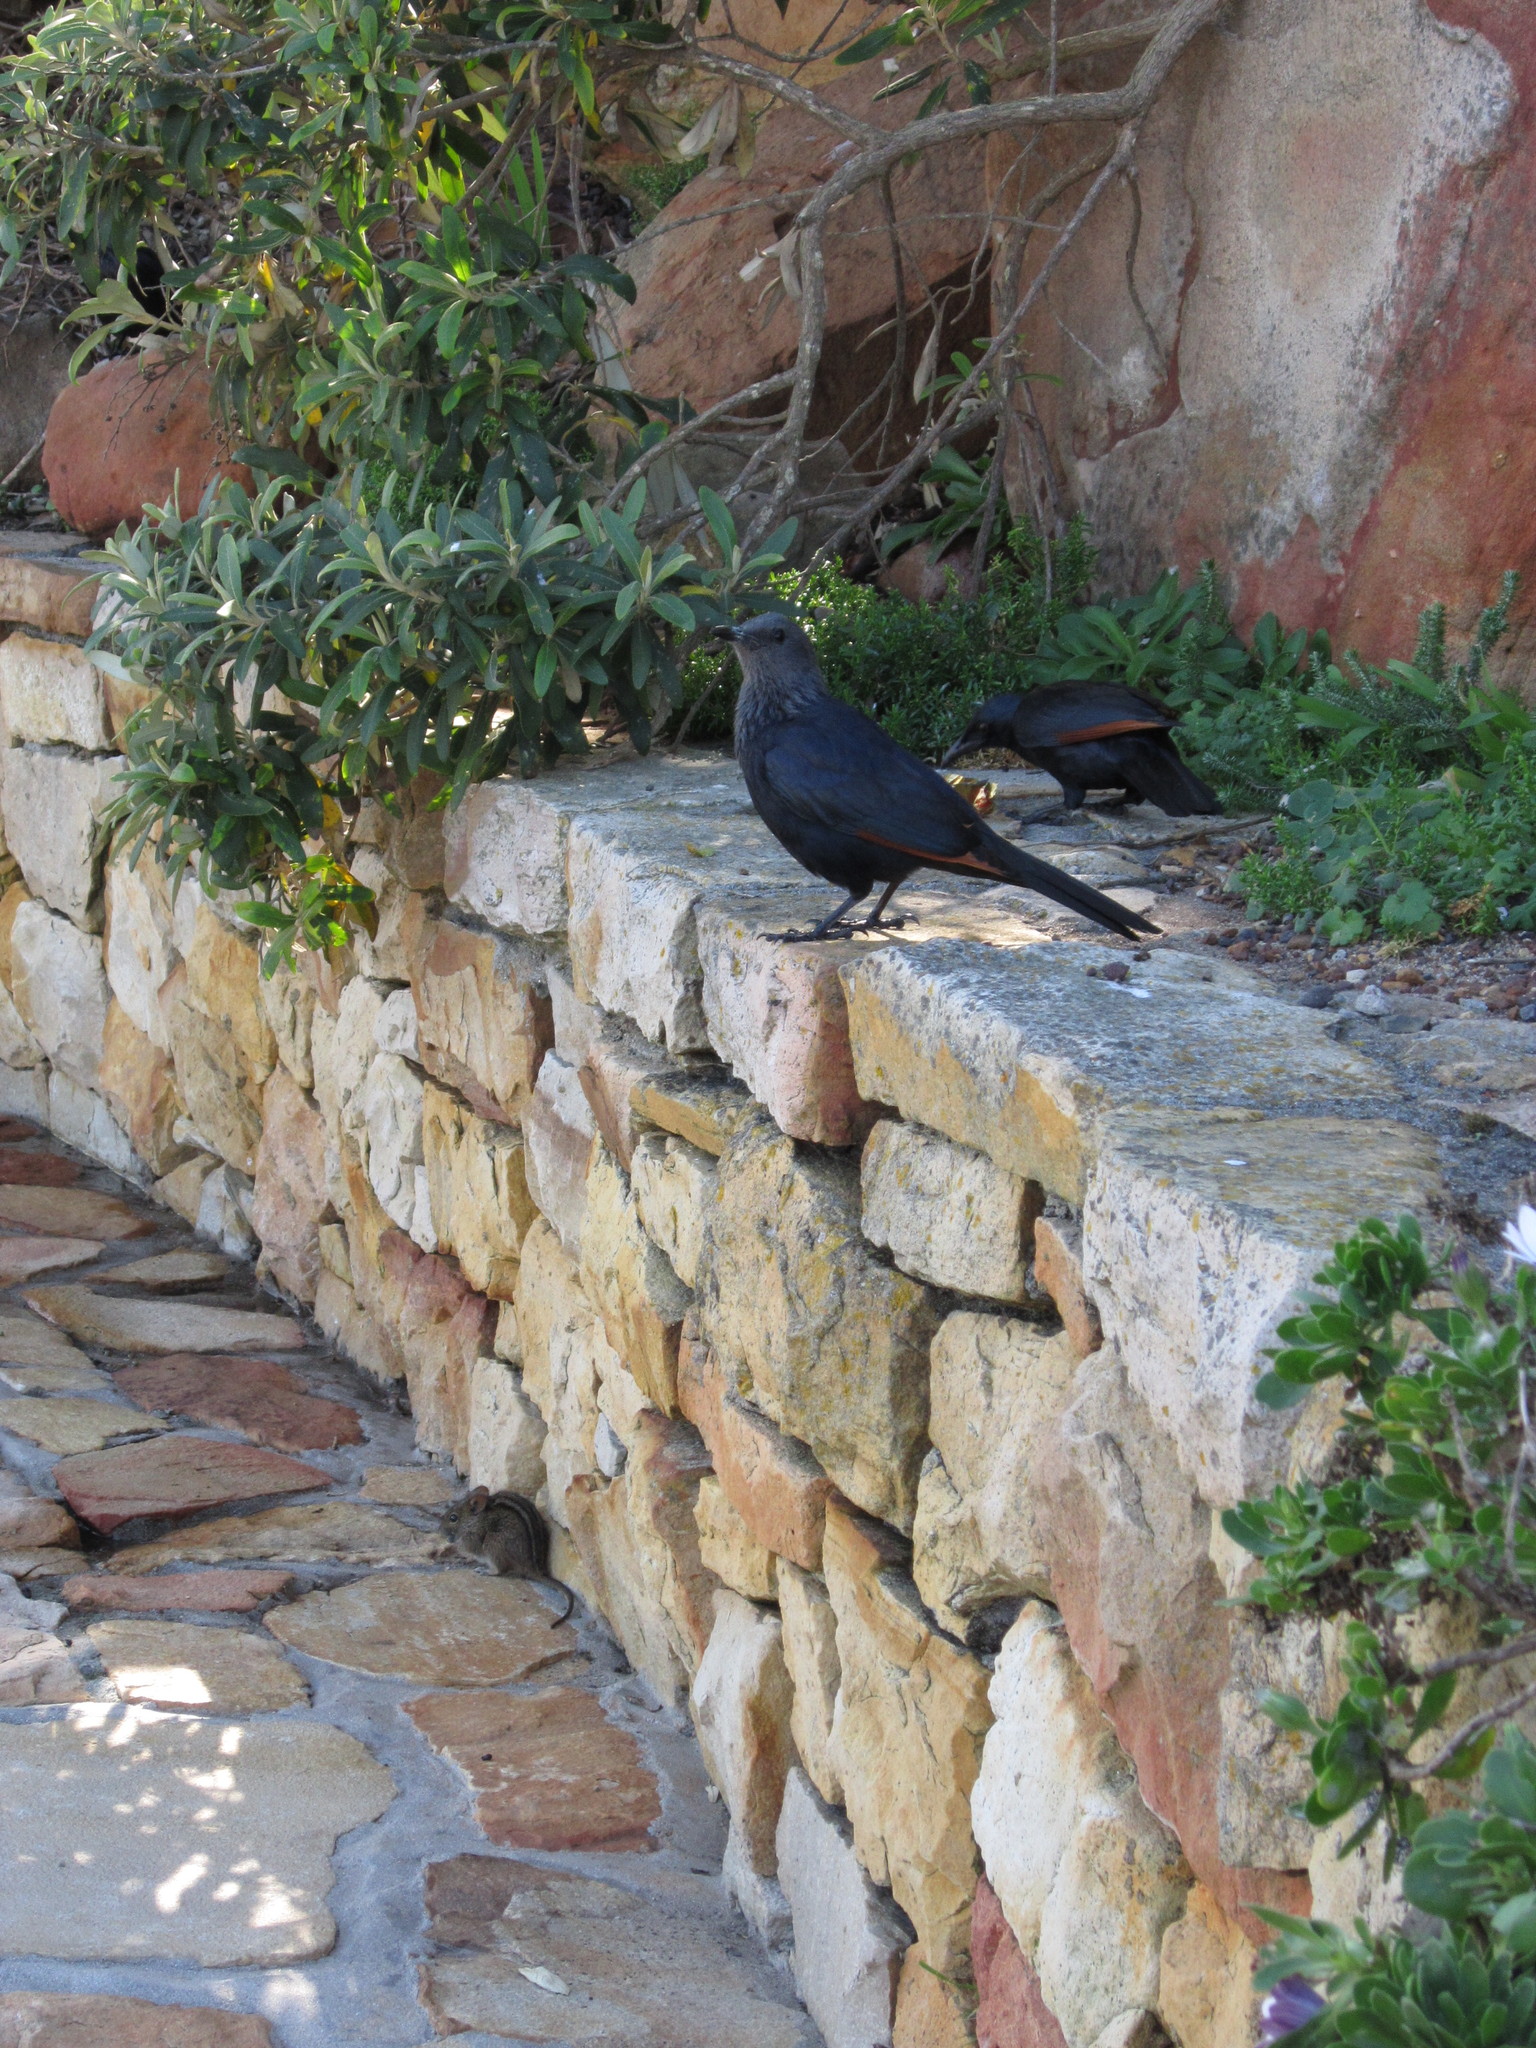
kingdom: Animalia
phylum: Chordata
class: Aves
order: Passeriformes
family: Sturnidae
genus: Onychognathus
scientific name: Onychognathus morio
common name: Red-winged starling
